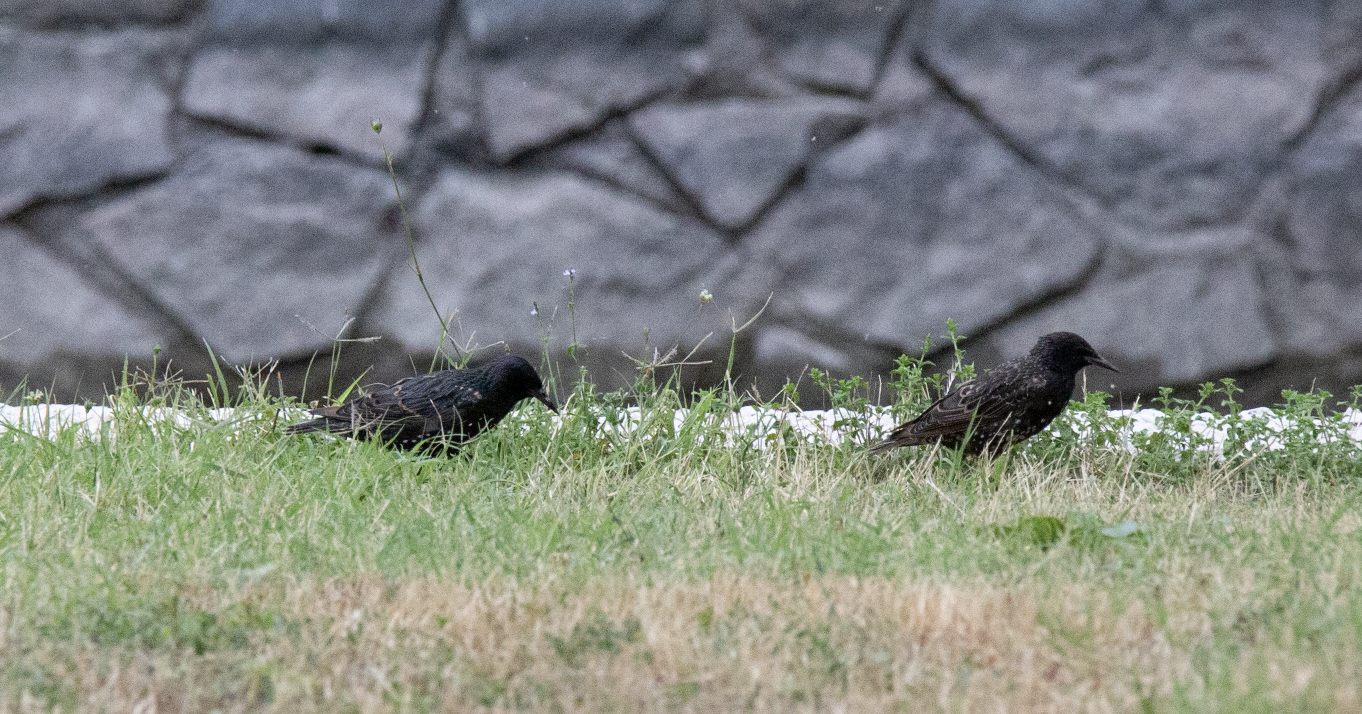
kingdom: Animalia
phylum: Chordata
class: Aves
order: Passeriformes
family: Sturnidae
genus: Sturnus
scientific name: Sturnus vulgaris
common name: Common starling
